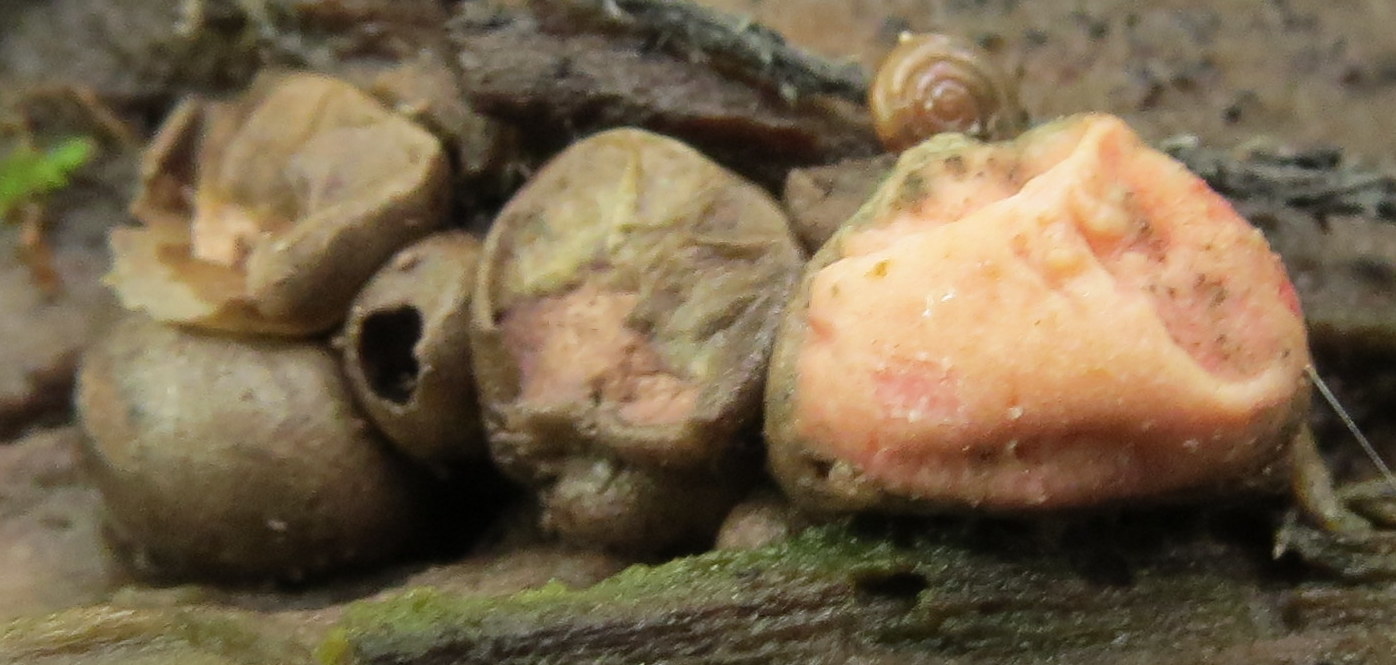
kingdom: Protozoa
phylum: Mycetozoa
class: Myxomycetes
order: Cribrariales
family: Tubiferaceae
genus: Lycogala
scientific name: Lycogala epidendrum
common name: Wolf's milk
